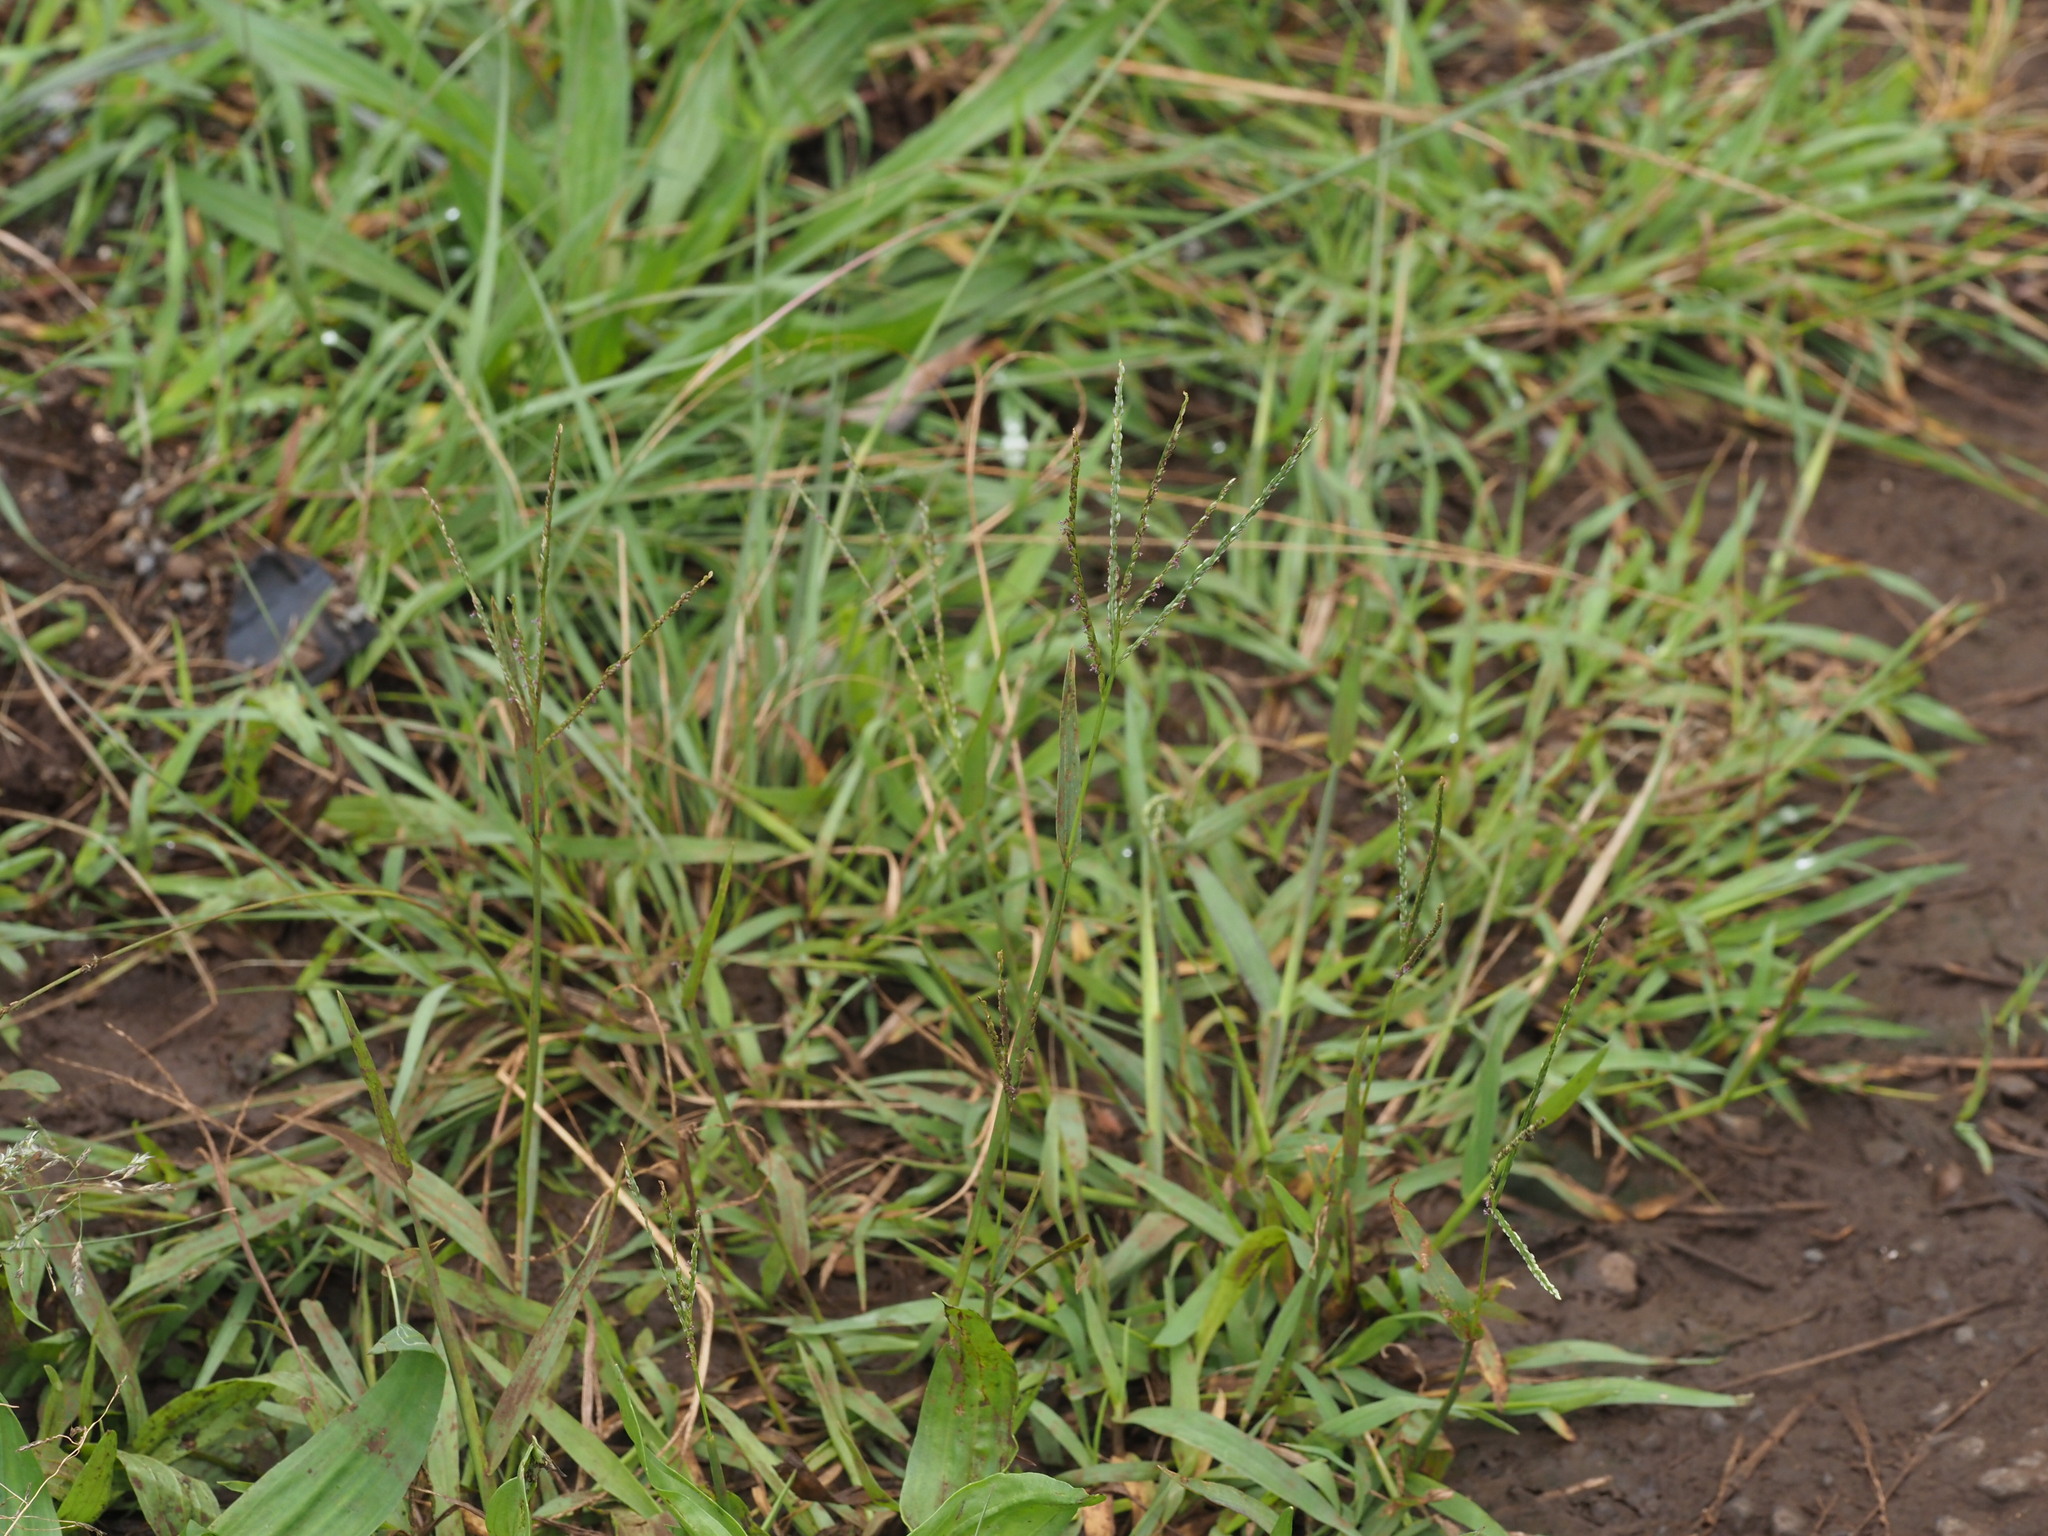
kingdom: Plantae
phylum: Tracheophyta
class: Liliopsida
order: Poales
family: Poaceae
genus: Digitaria
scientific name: Digitaria violascens
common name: Violet crabgrass
